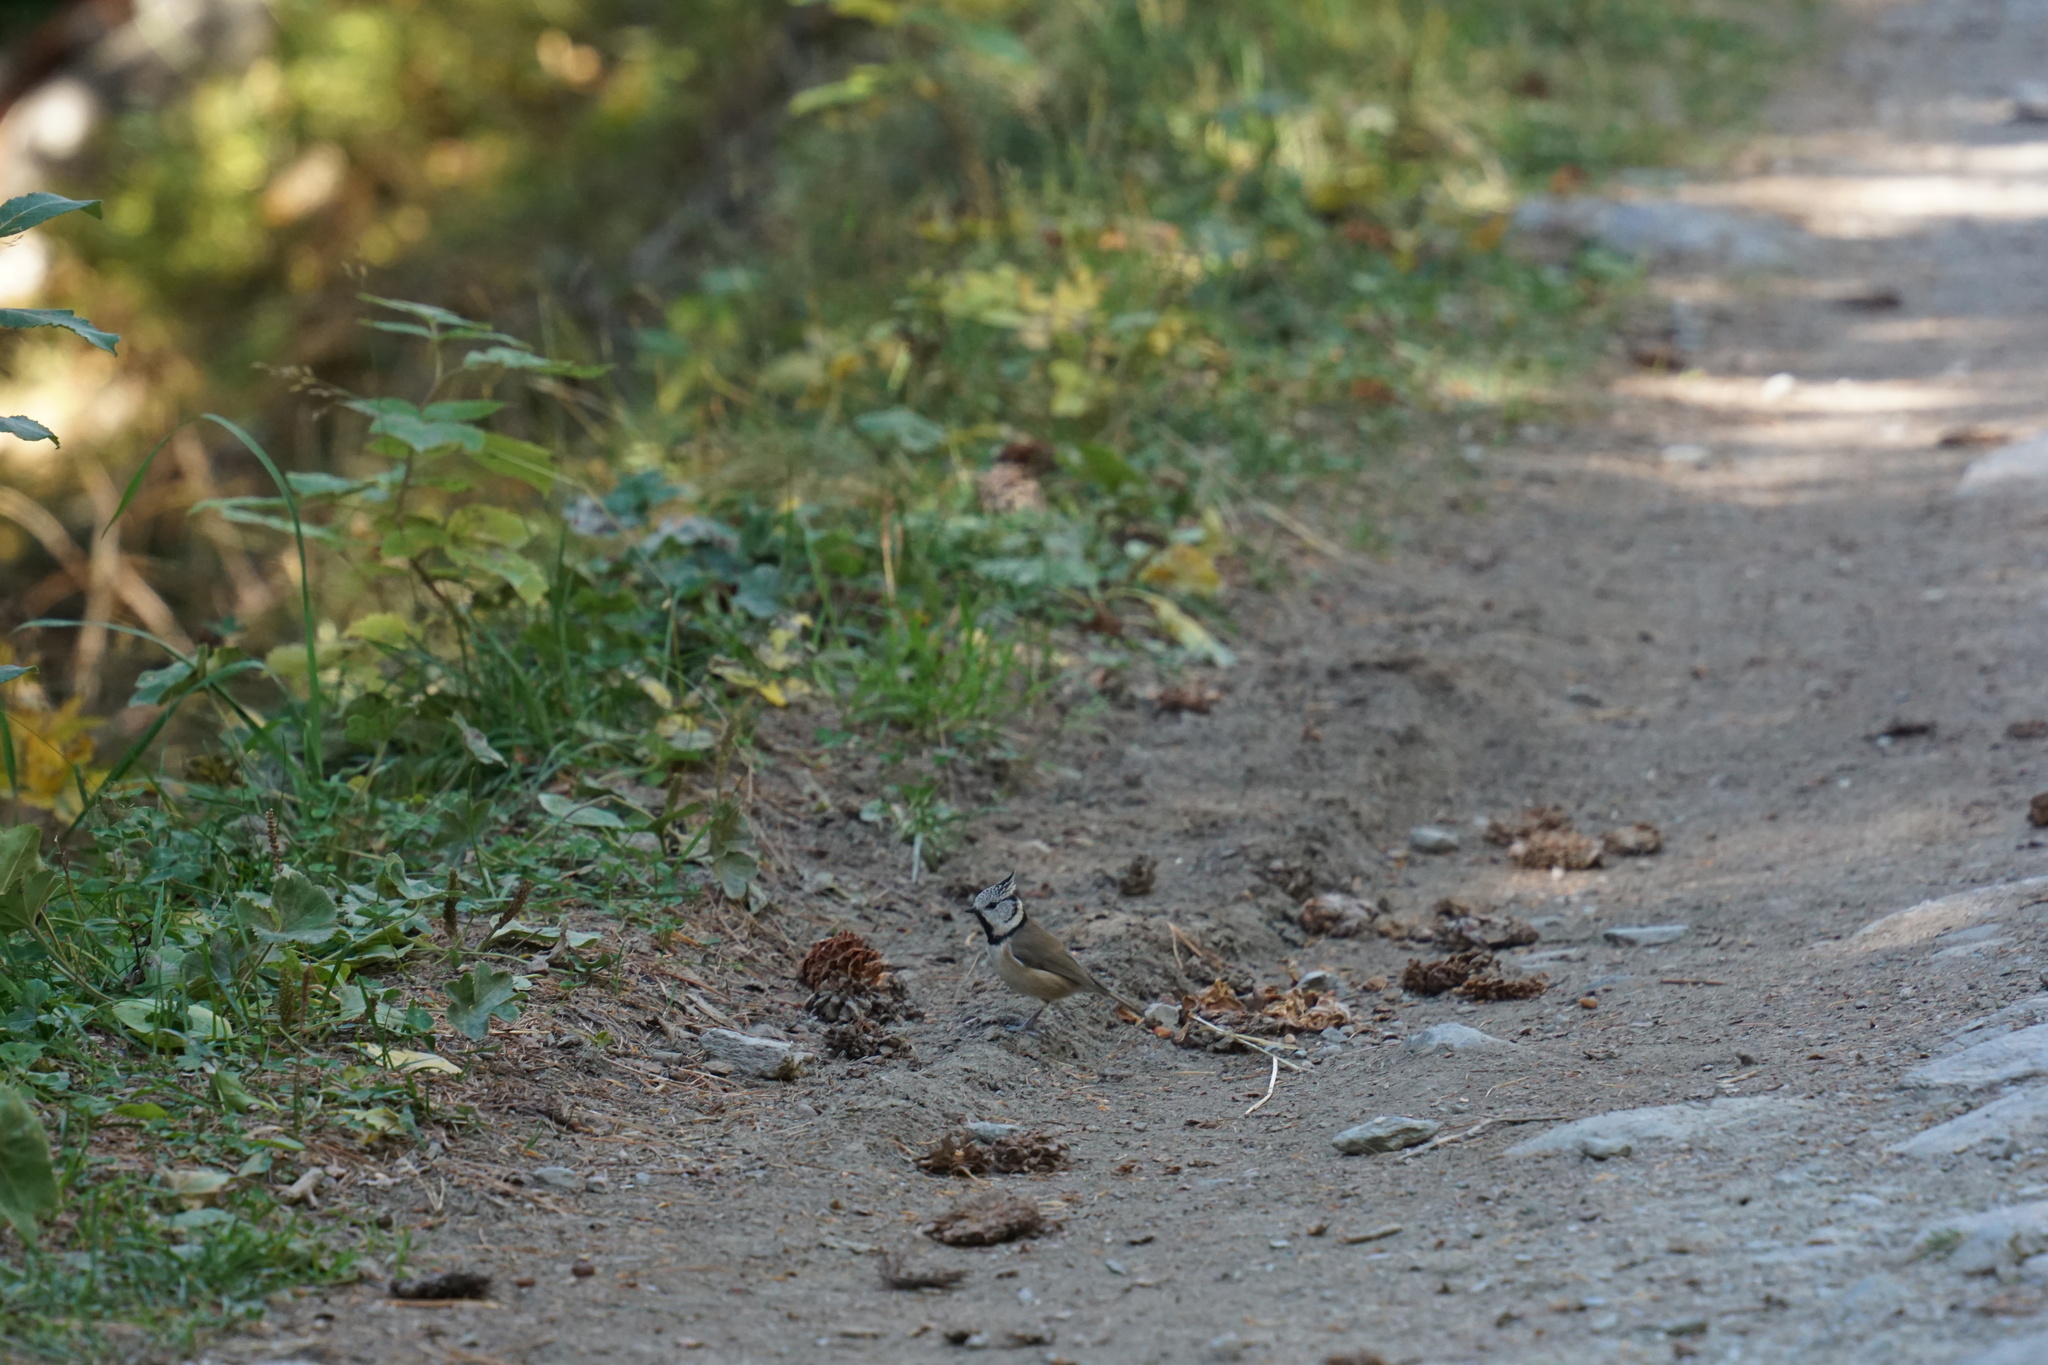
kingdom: Animalia
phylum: Chordata
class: Aves
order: Passeriformes
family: Paridae
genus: Lophophanes
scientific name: Lophophanes cristatus
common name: European crested tit
